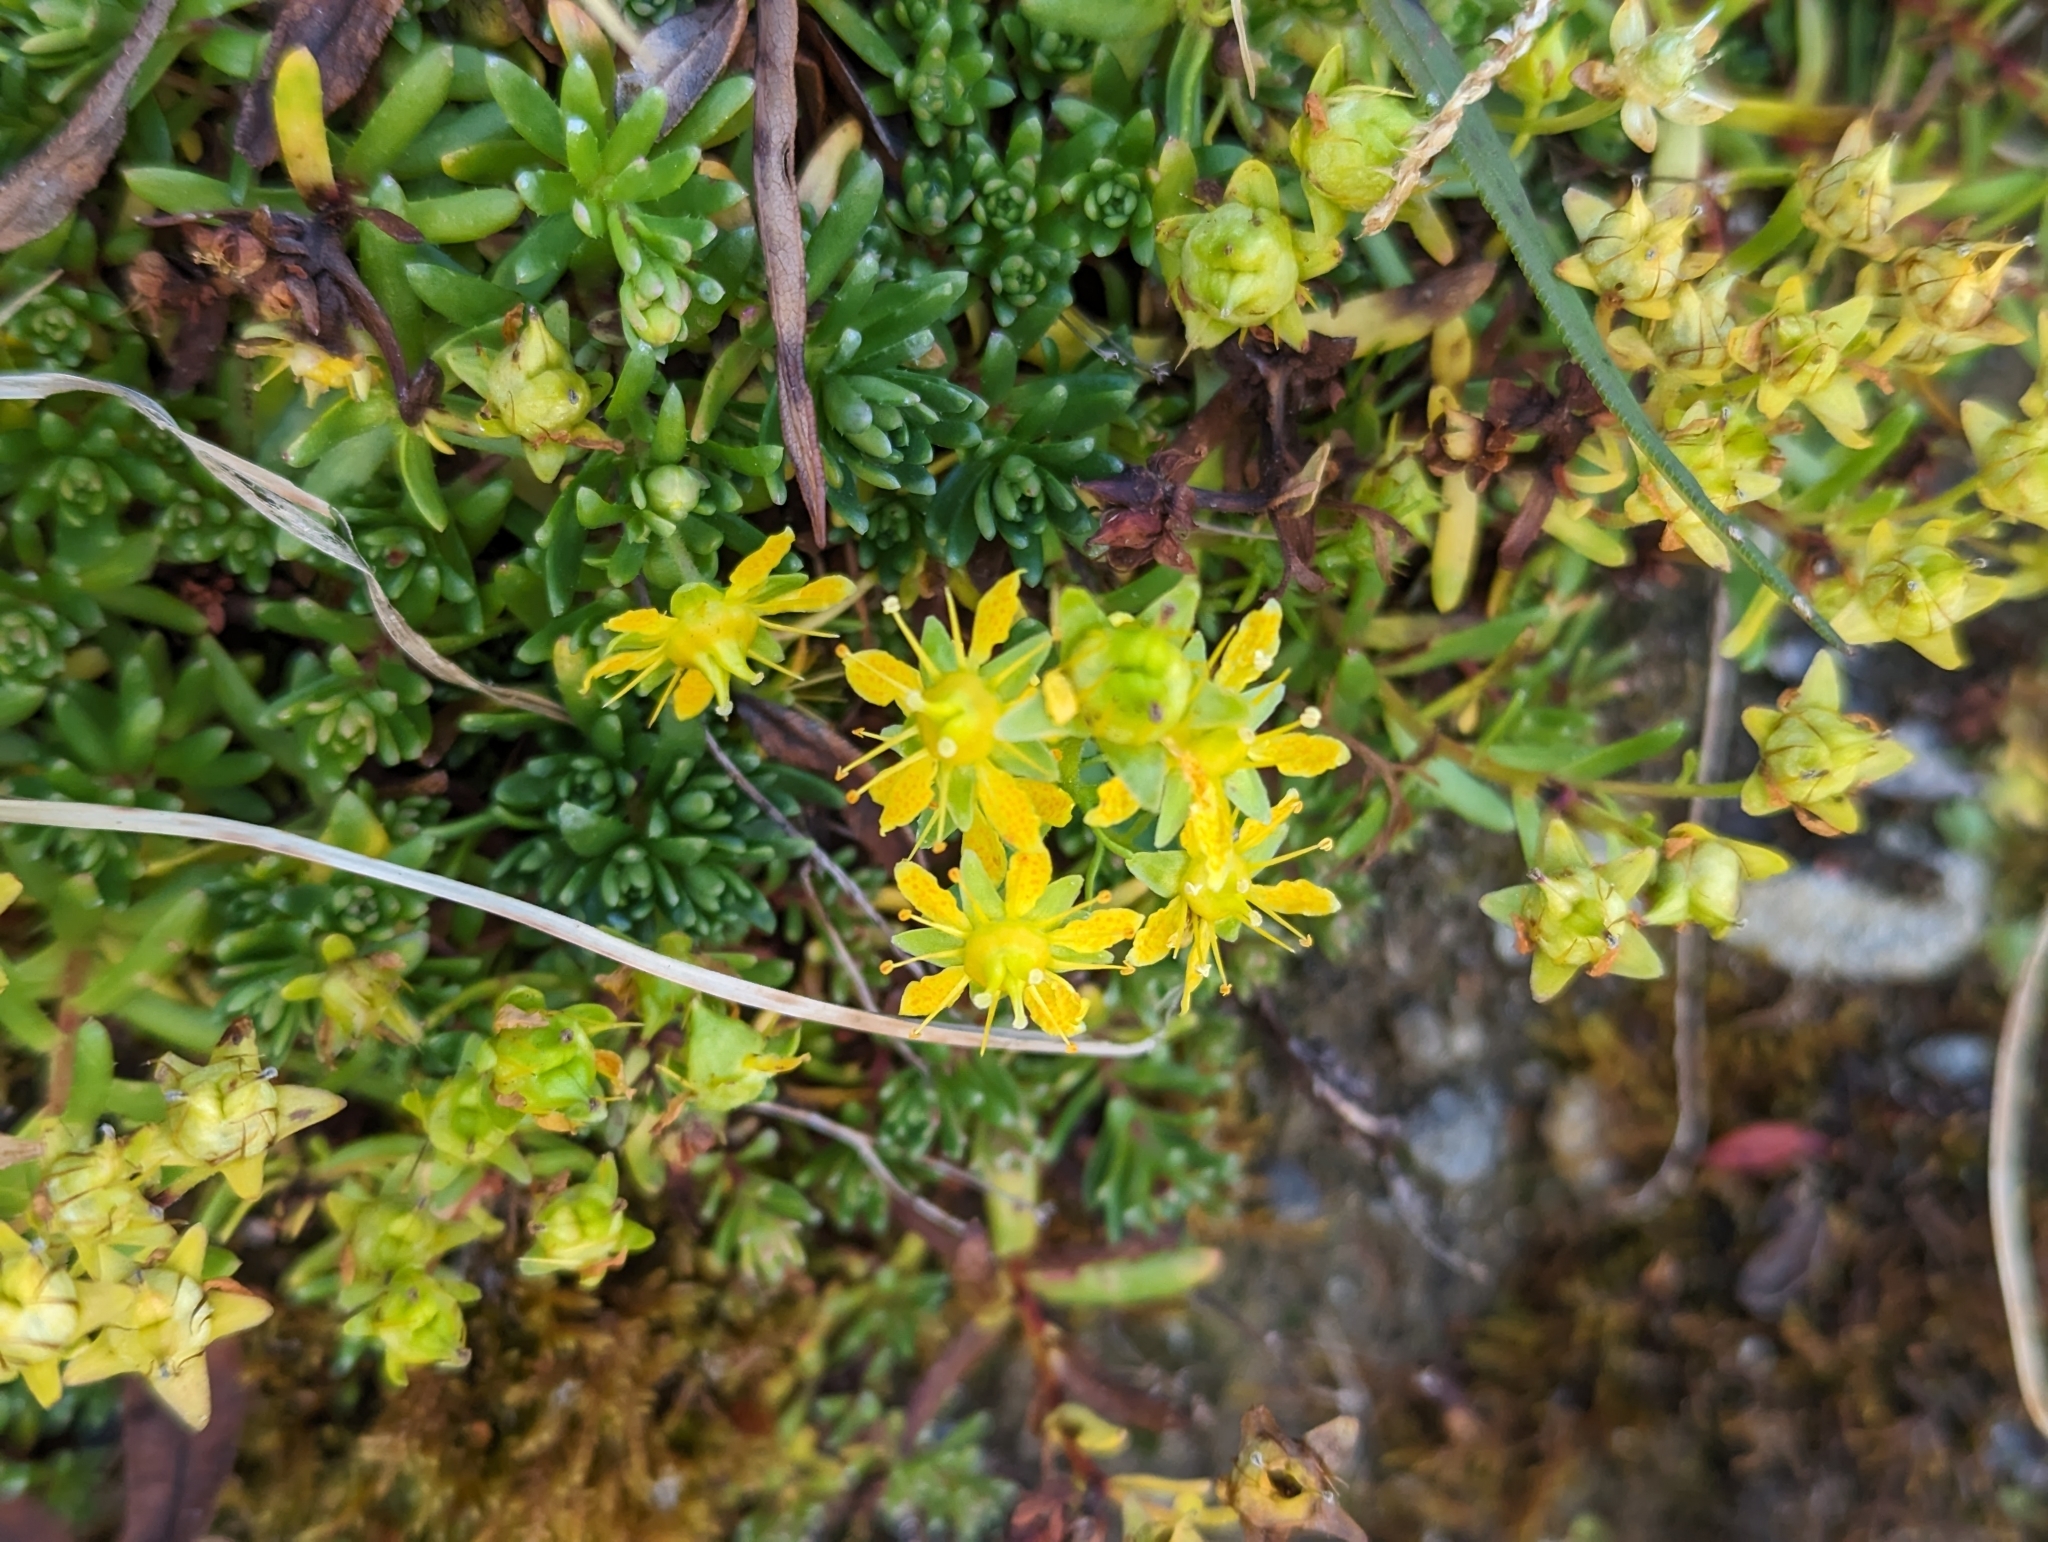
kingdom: Plantae
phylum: Tracheophyta
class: Magnoliopsida
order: Saxifragales
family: Saxifragaceae
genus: Saxifraga
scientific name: Saxifraga aizoides
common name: Yellow mountain saxifrage
